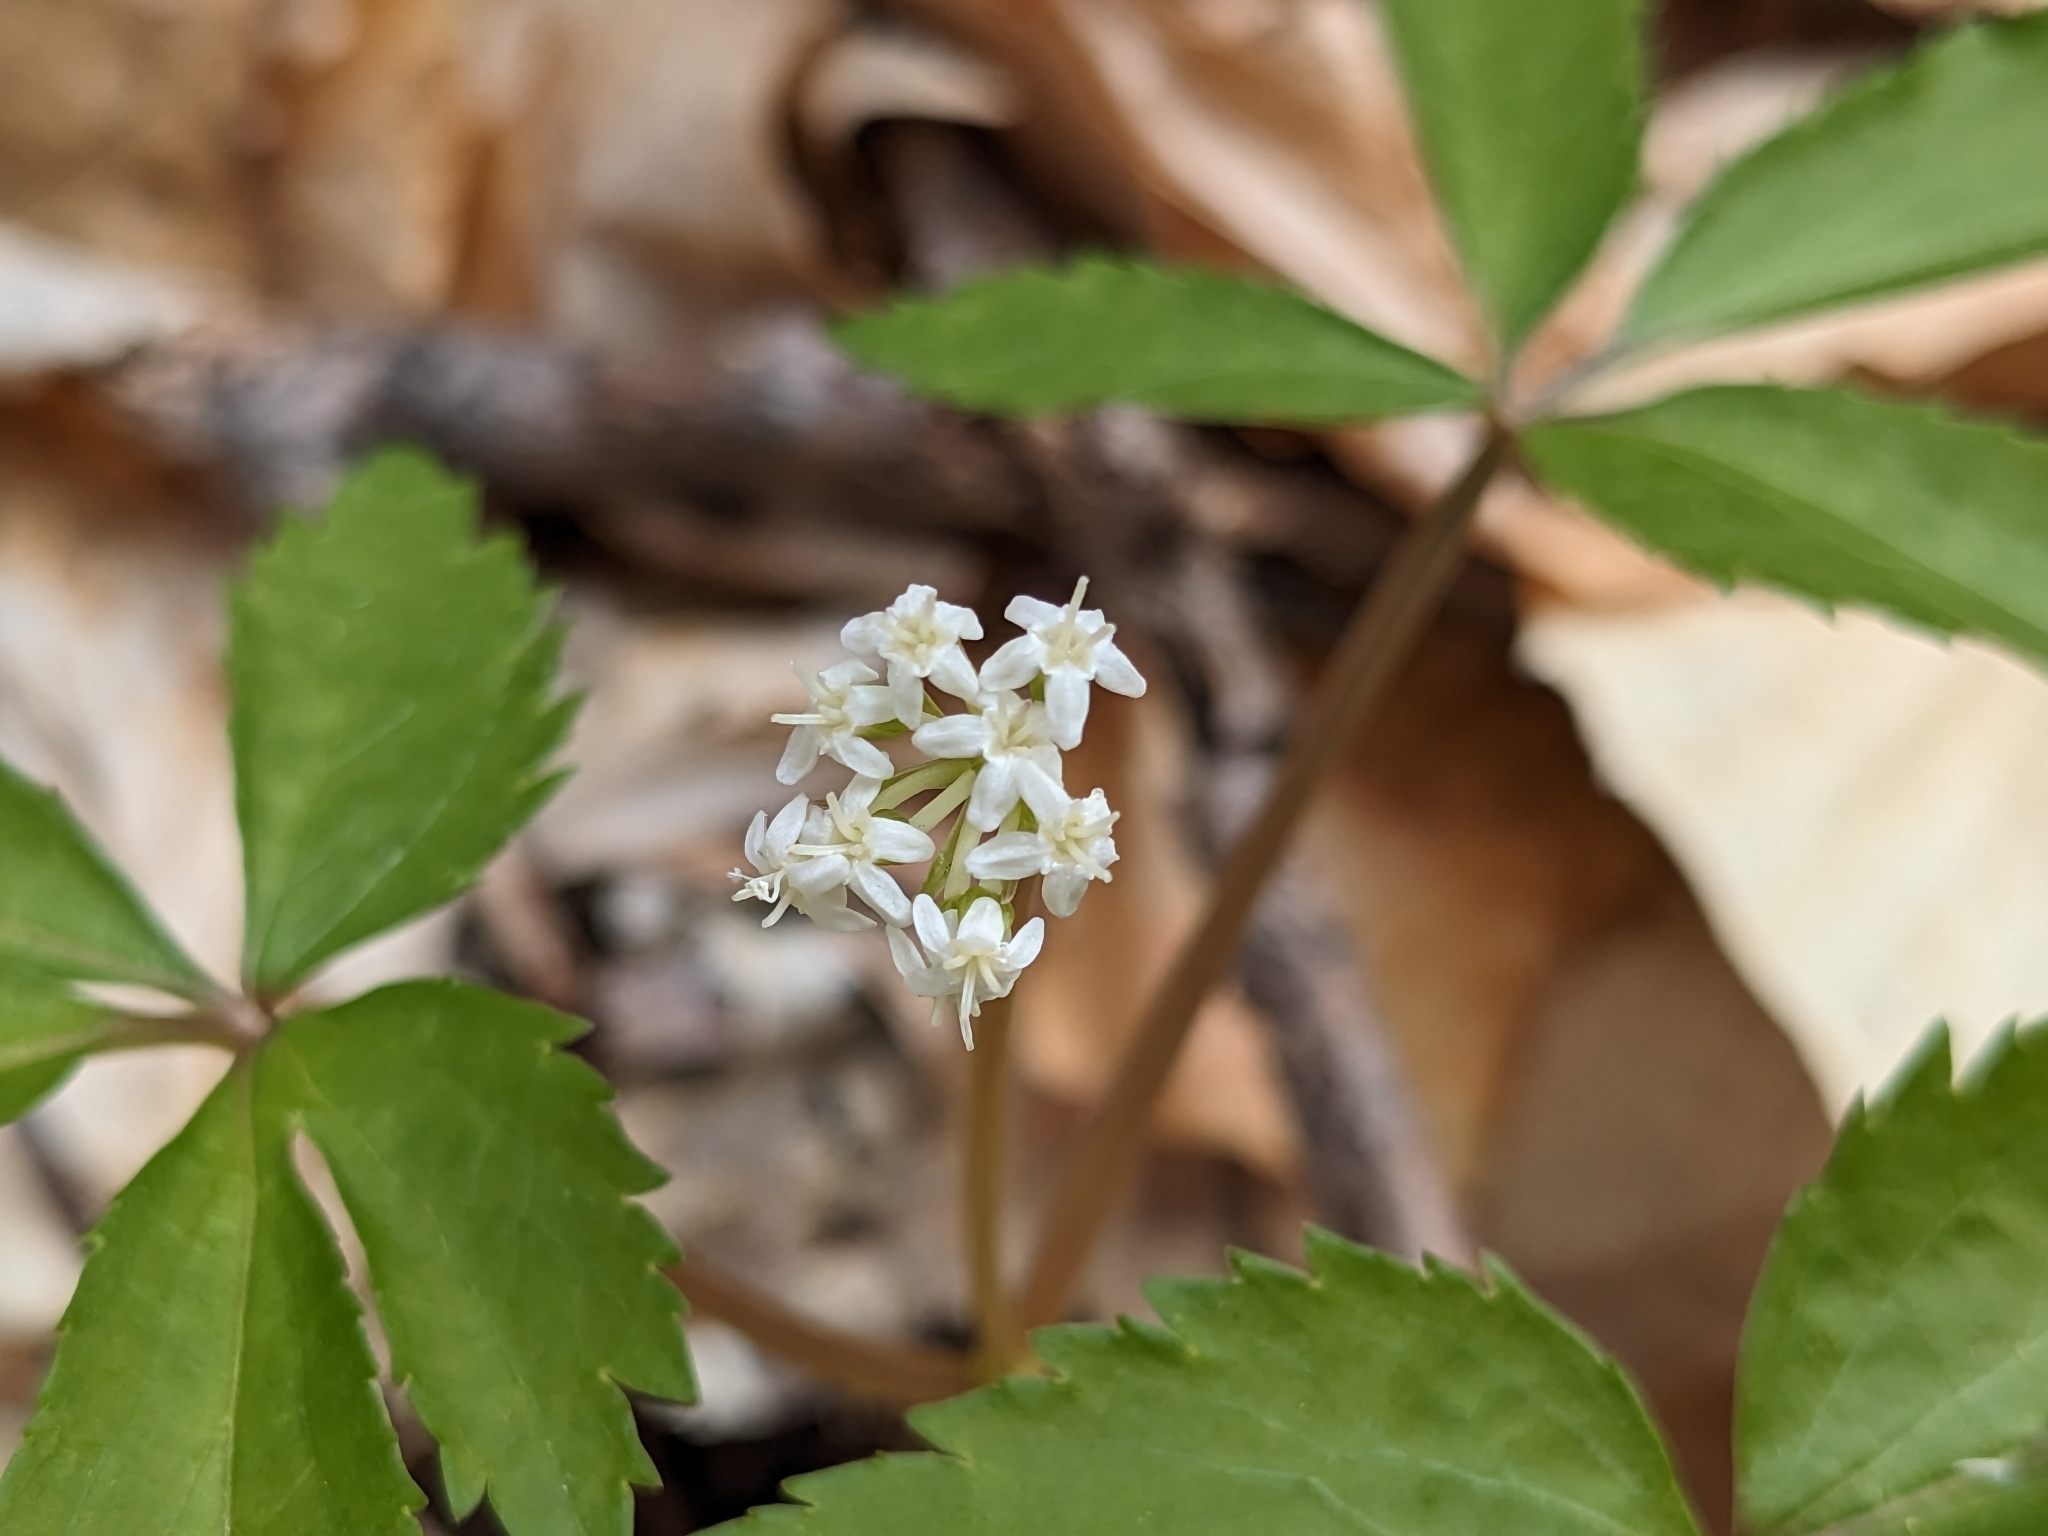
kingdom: Plantae
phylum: Tracheophyta
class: Magnoliopsida
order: Apiales
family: Araliaceae
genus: Panax
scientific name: Panax trifolius
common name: Dwarf ginseng
